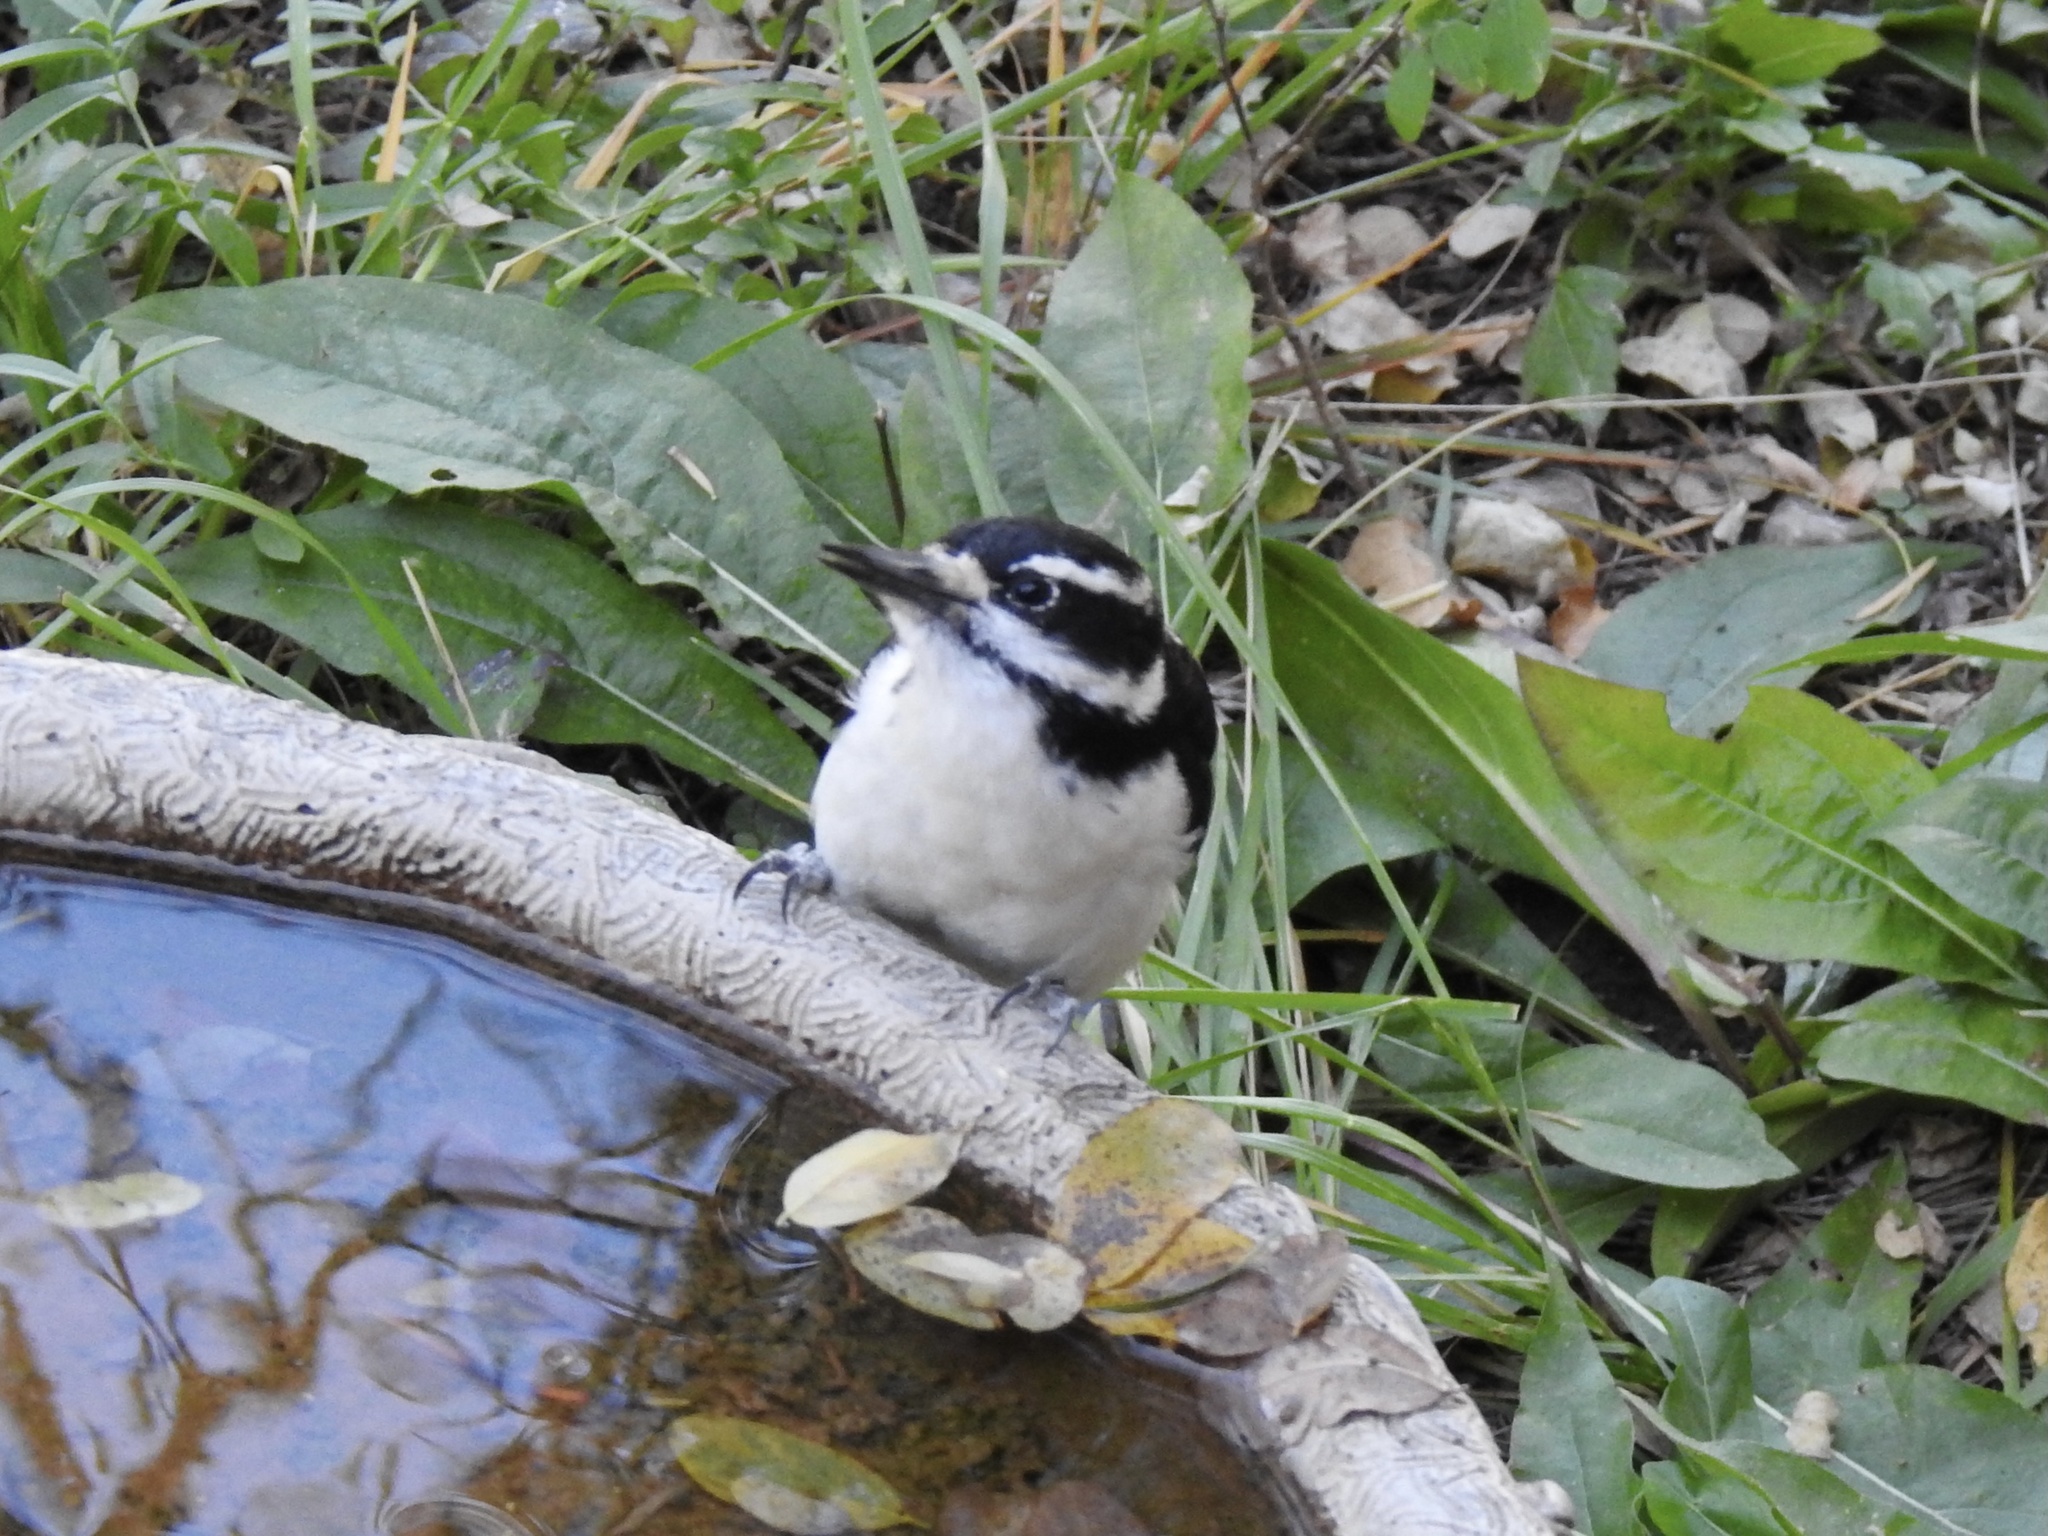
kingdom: Animalia
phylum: Chordata
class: Aves
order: Piciformes
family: Picidae
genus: Leuconotopicus
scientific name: Leuconotopicus villosus
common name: Hairy woodpecker
